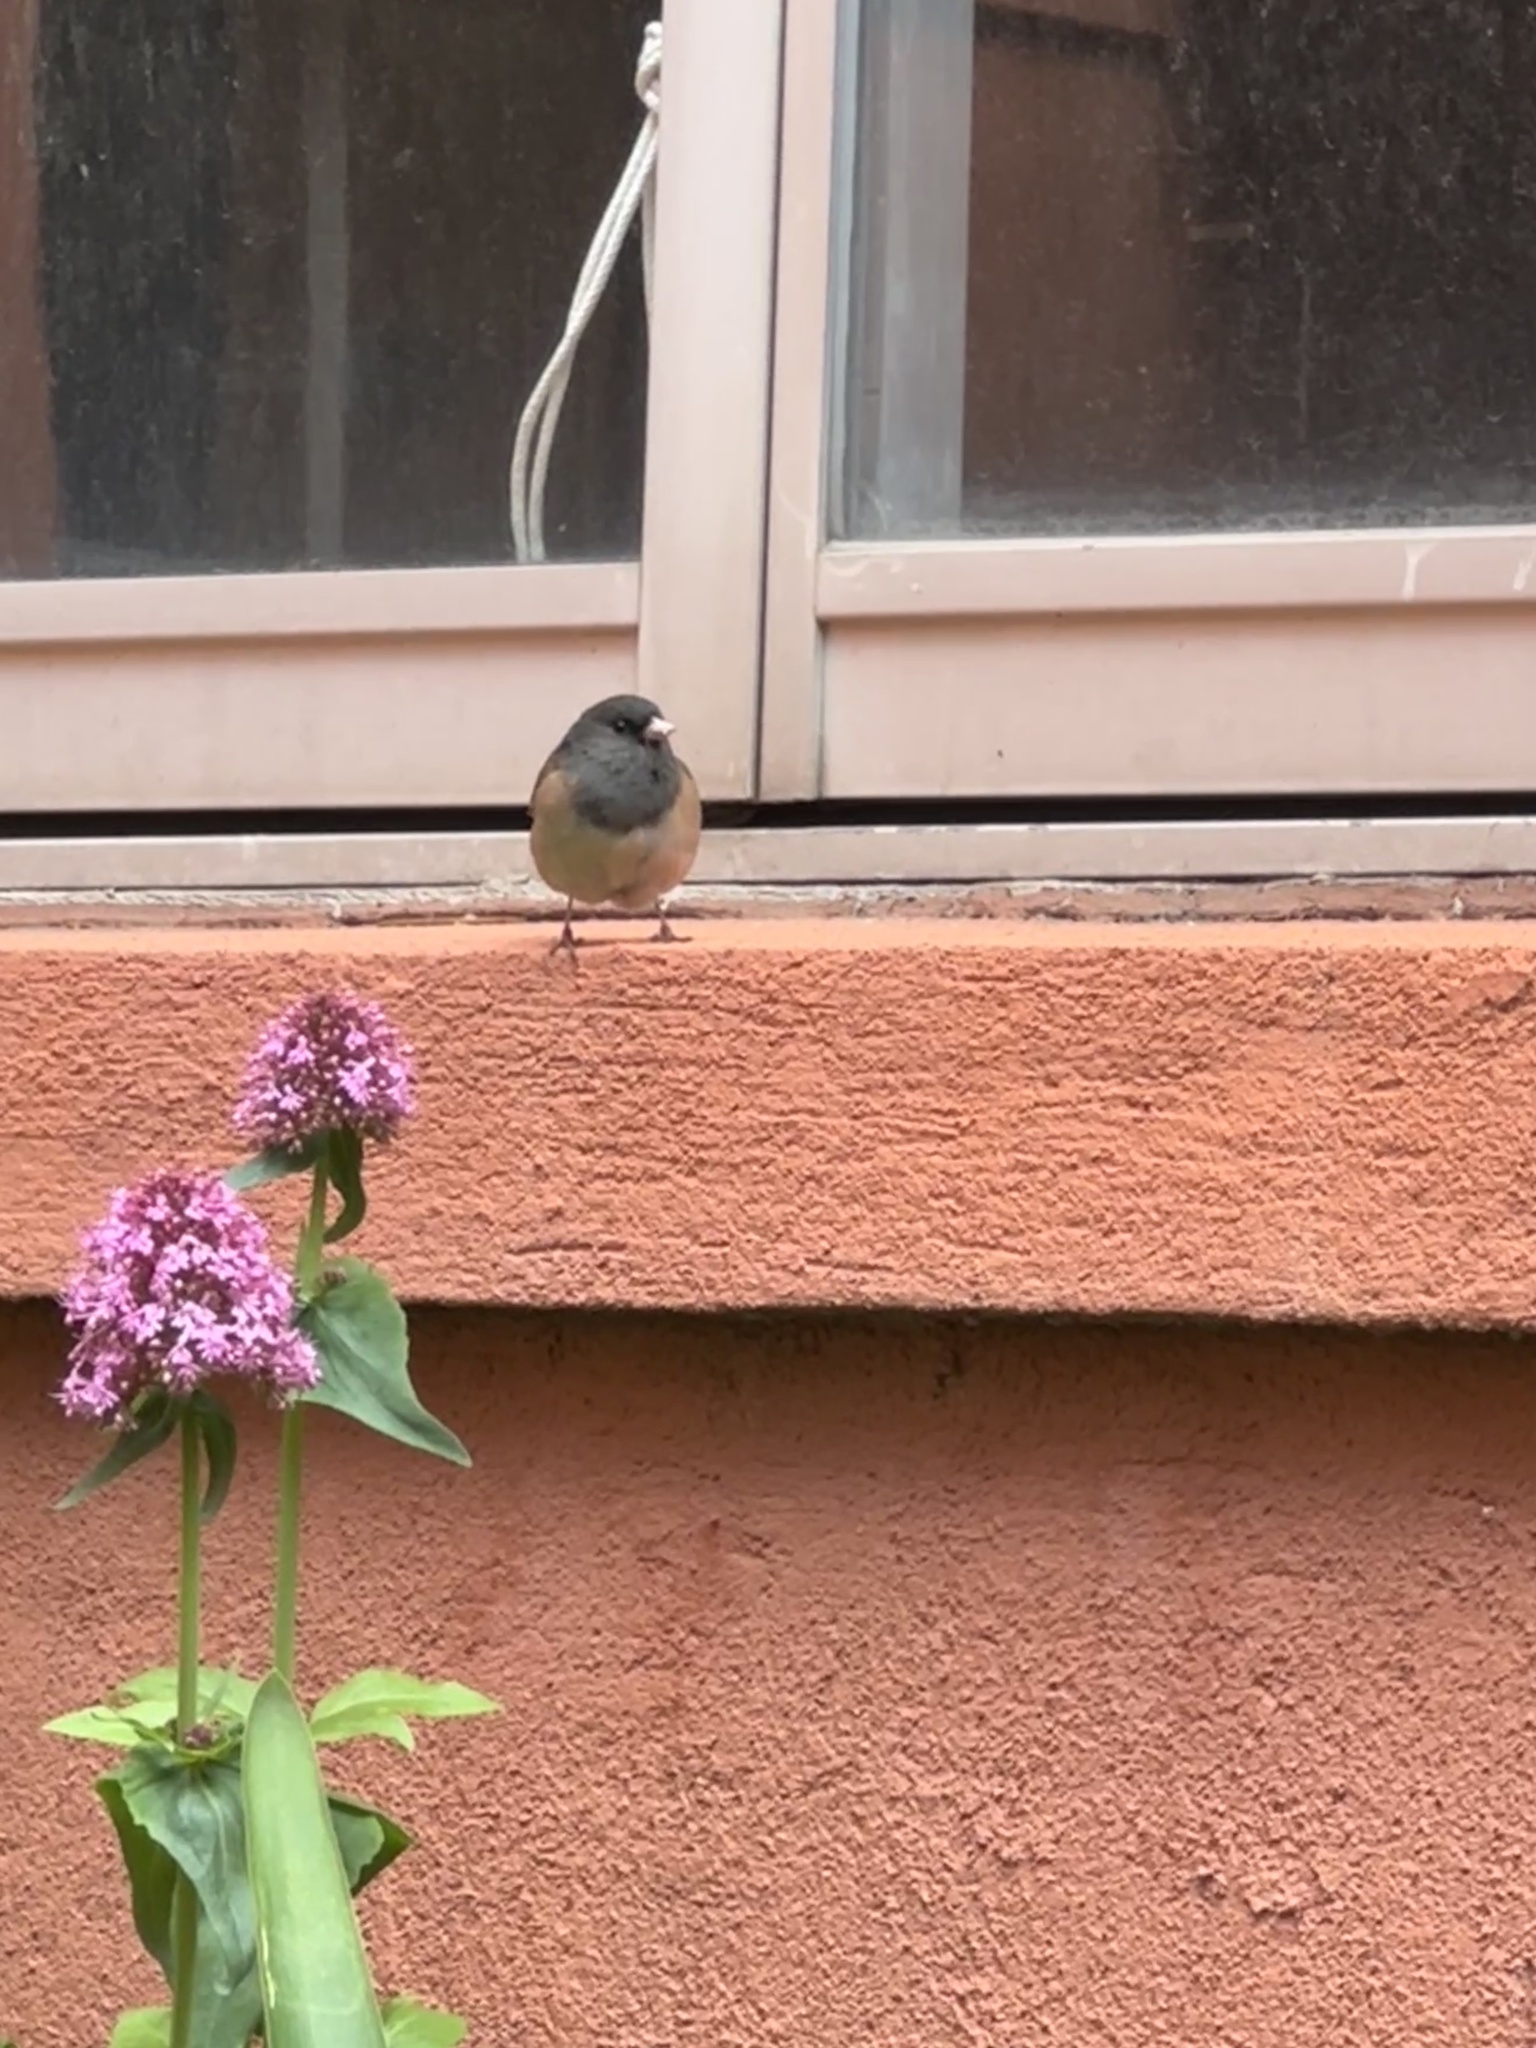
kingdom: Animalia
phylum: Chordata
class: Aves
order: Passeriformes
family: Passerellidae
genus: Junco
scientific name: Junco hyemalis
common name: Dark-eyed junco
